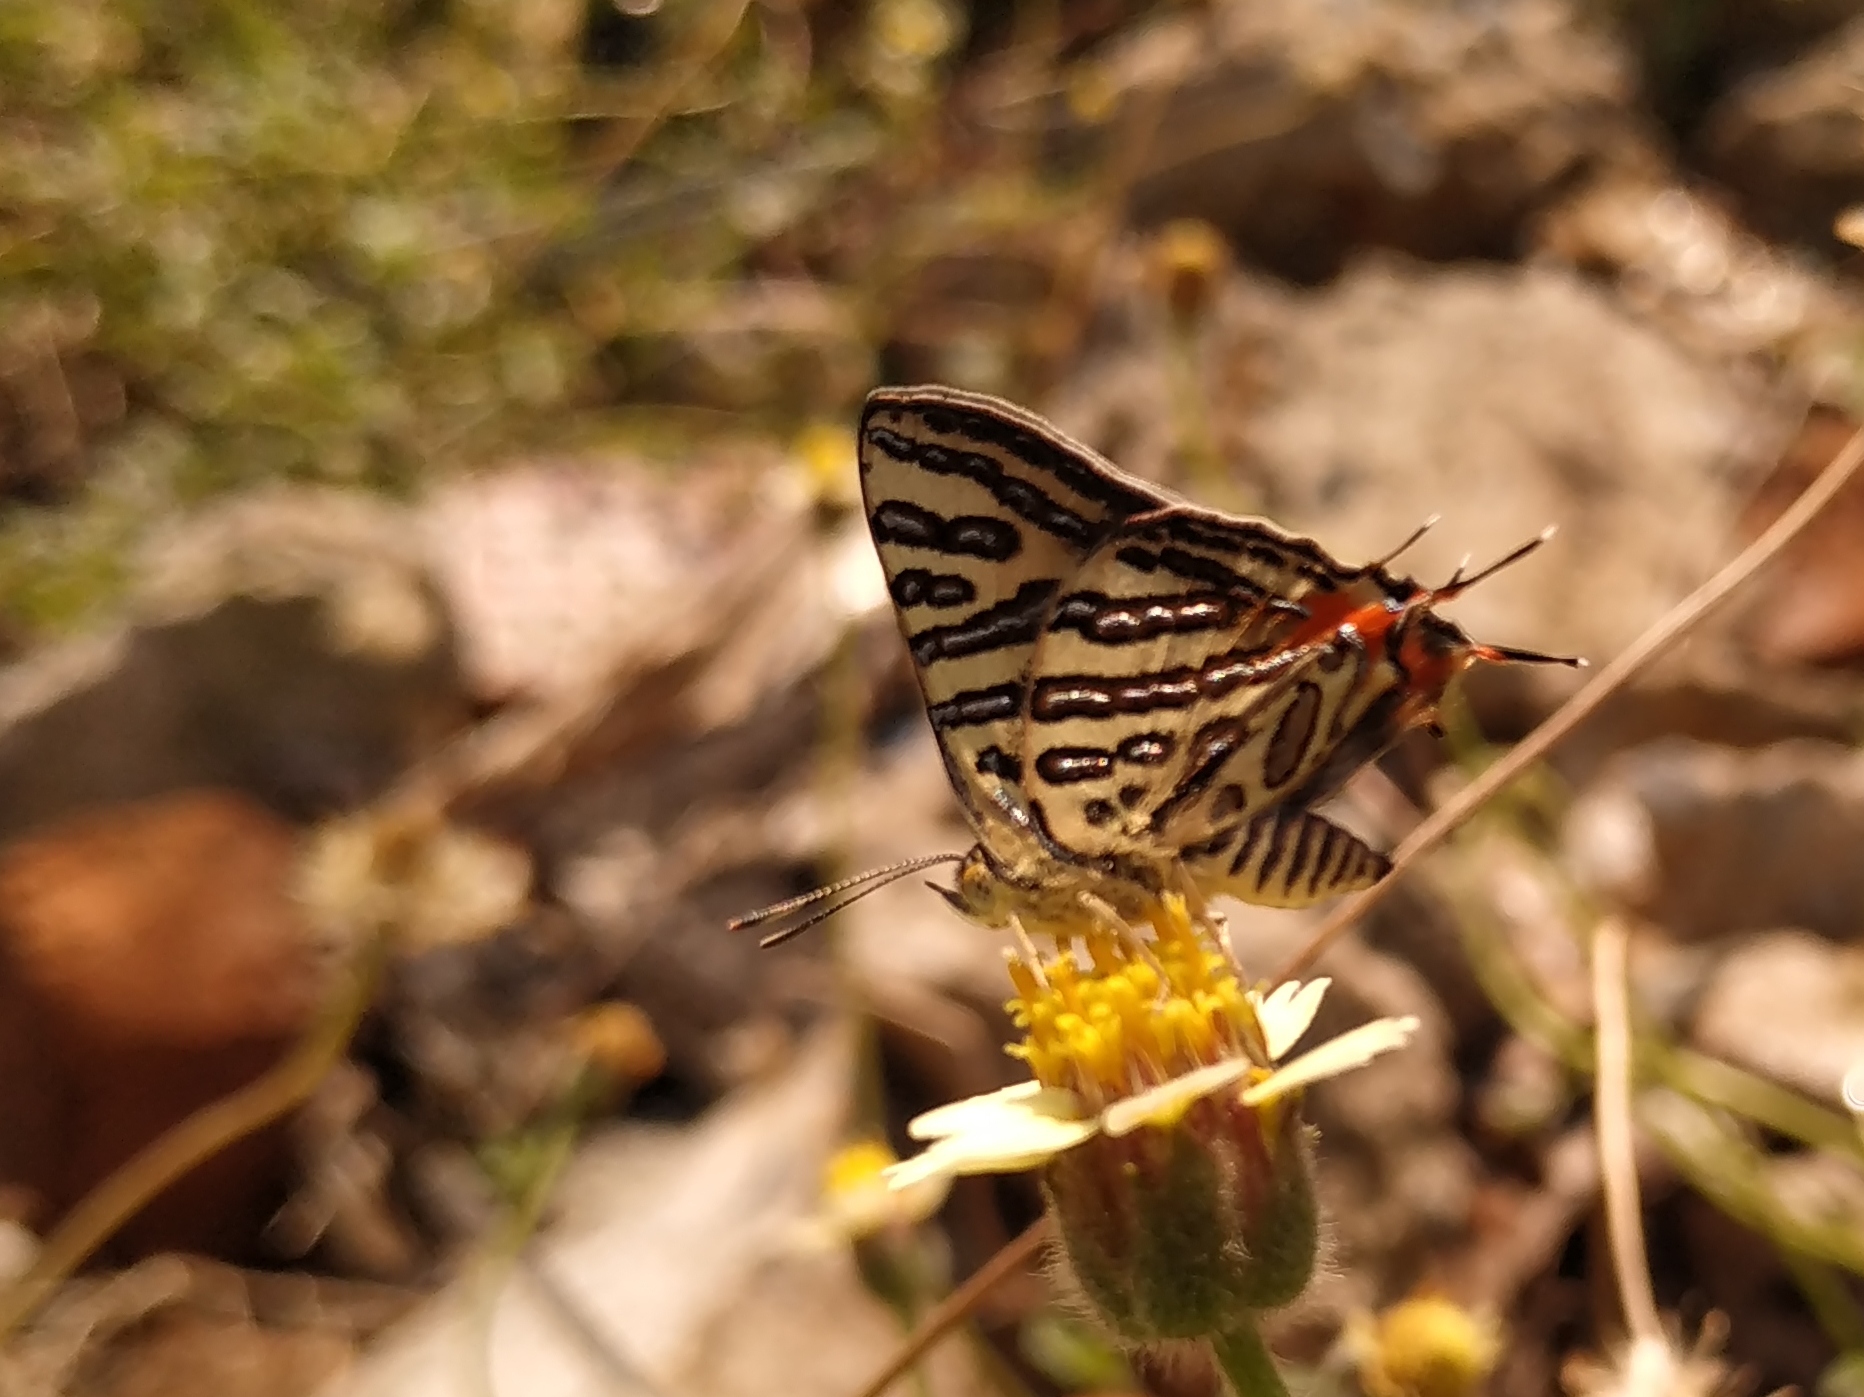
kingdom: Animalia
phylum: Arthropoda
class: Insecta
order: Lepidoptera
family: Lycaenidae
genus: Cigaritis
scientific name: Cigaritis
